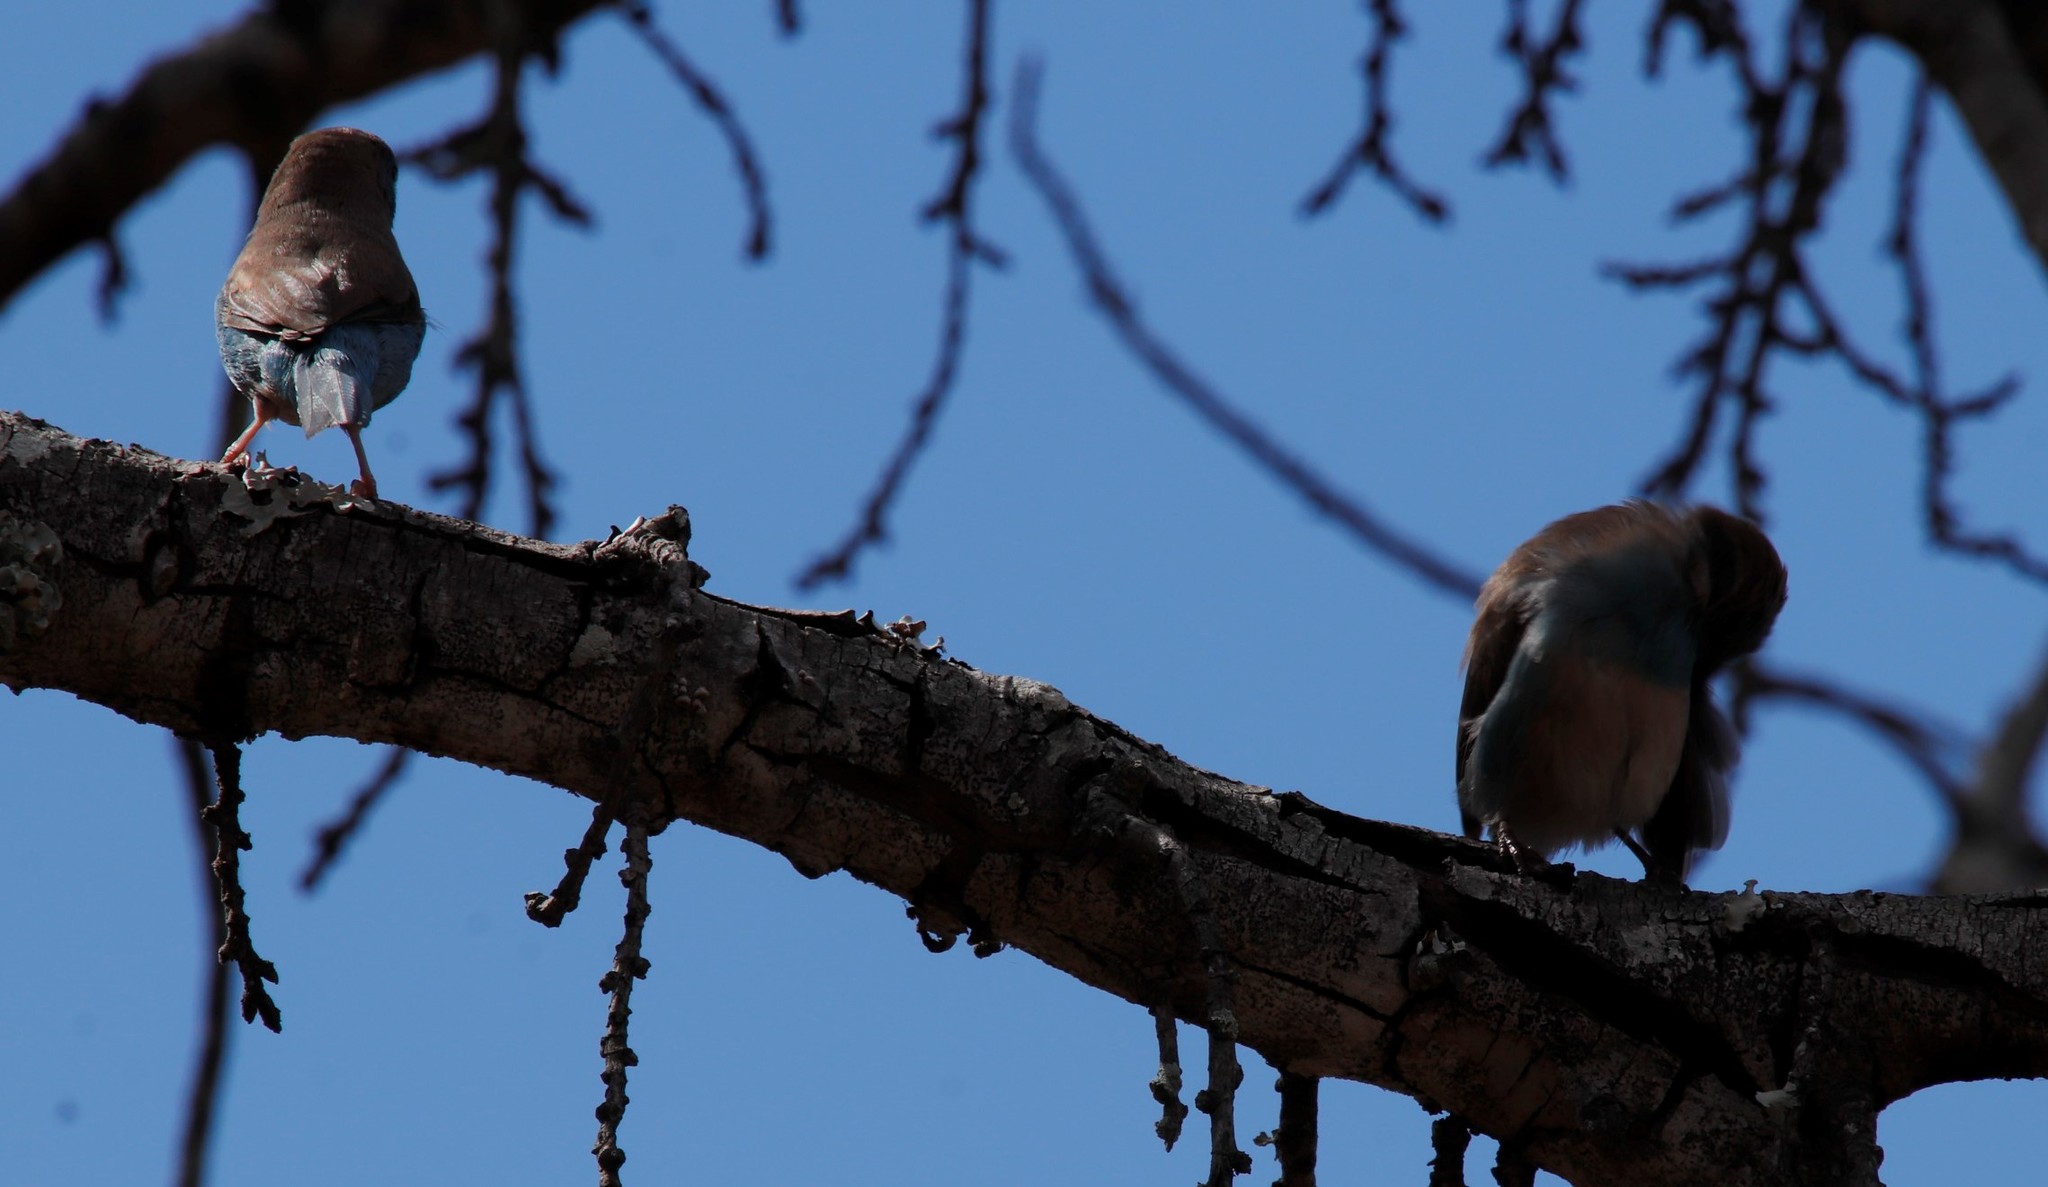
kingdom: Animalia
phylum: Chordata
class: Aves
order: Passeriformes
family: Estrildidae
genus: Uraeginthus
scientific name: Uraeginthus angolensis
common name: Blue waxbill
